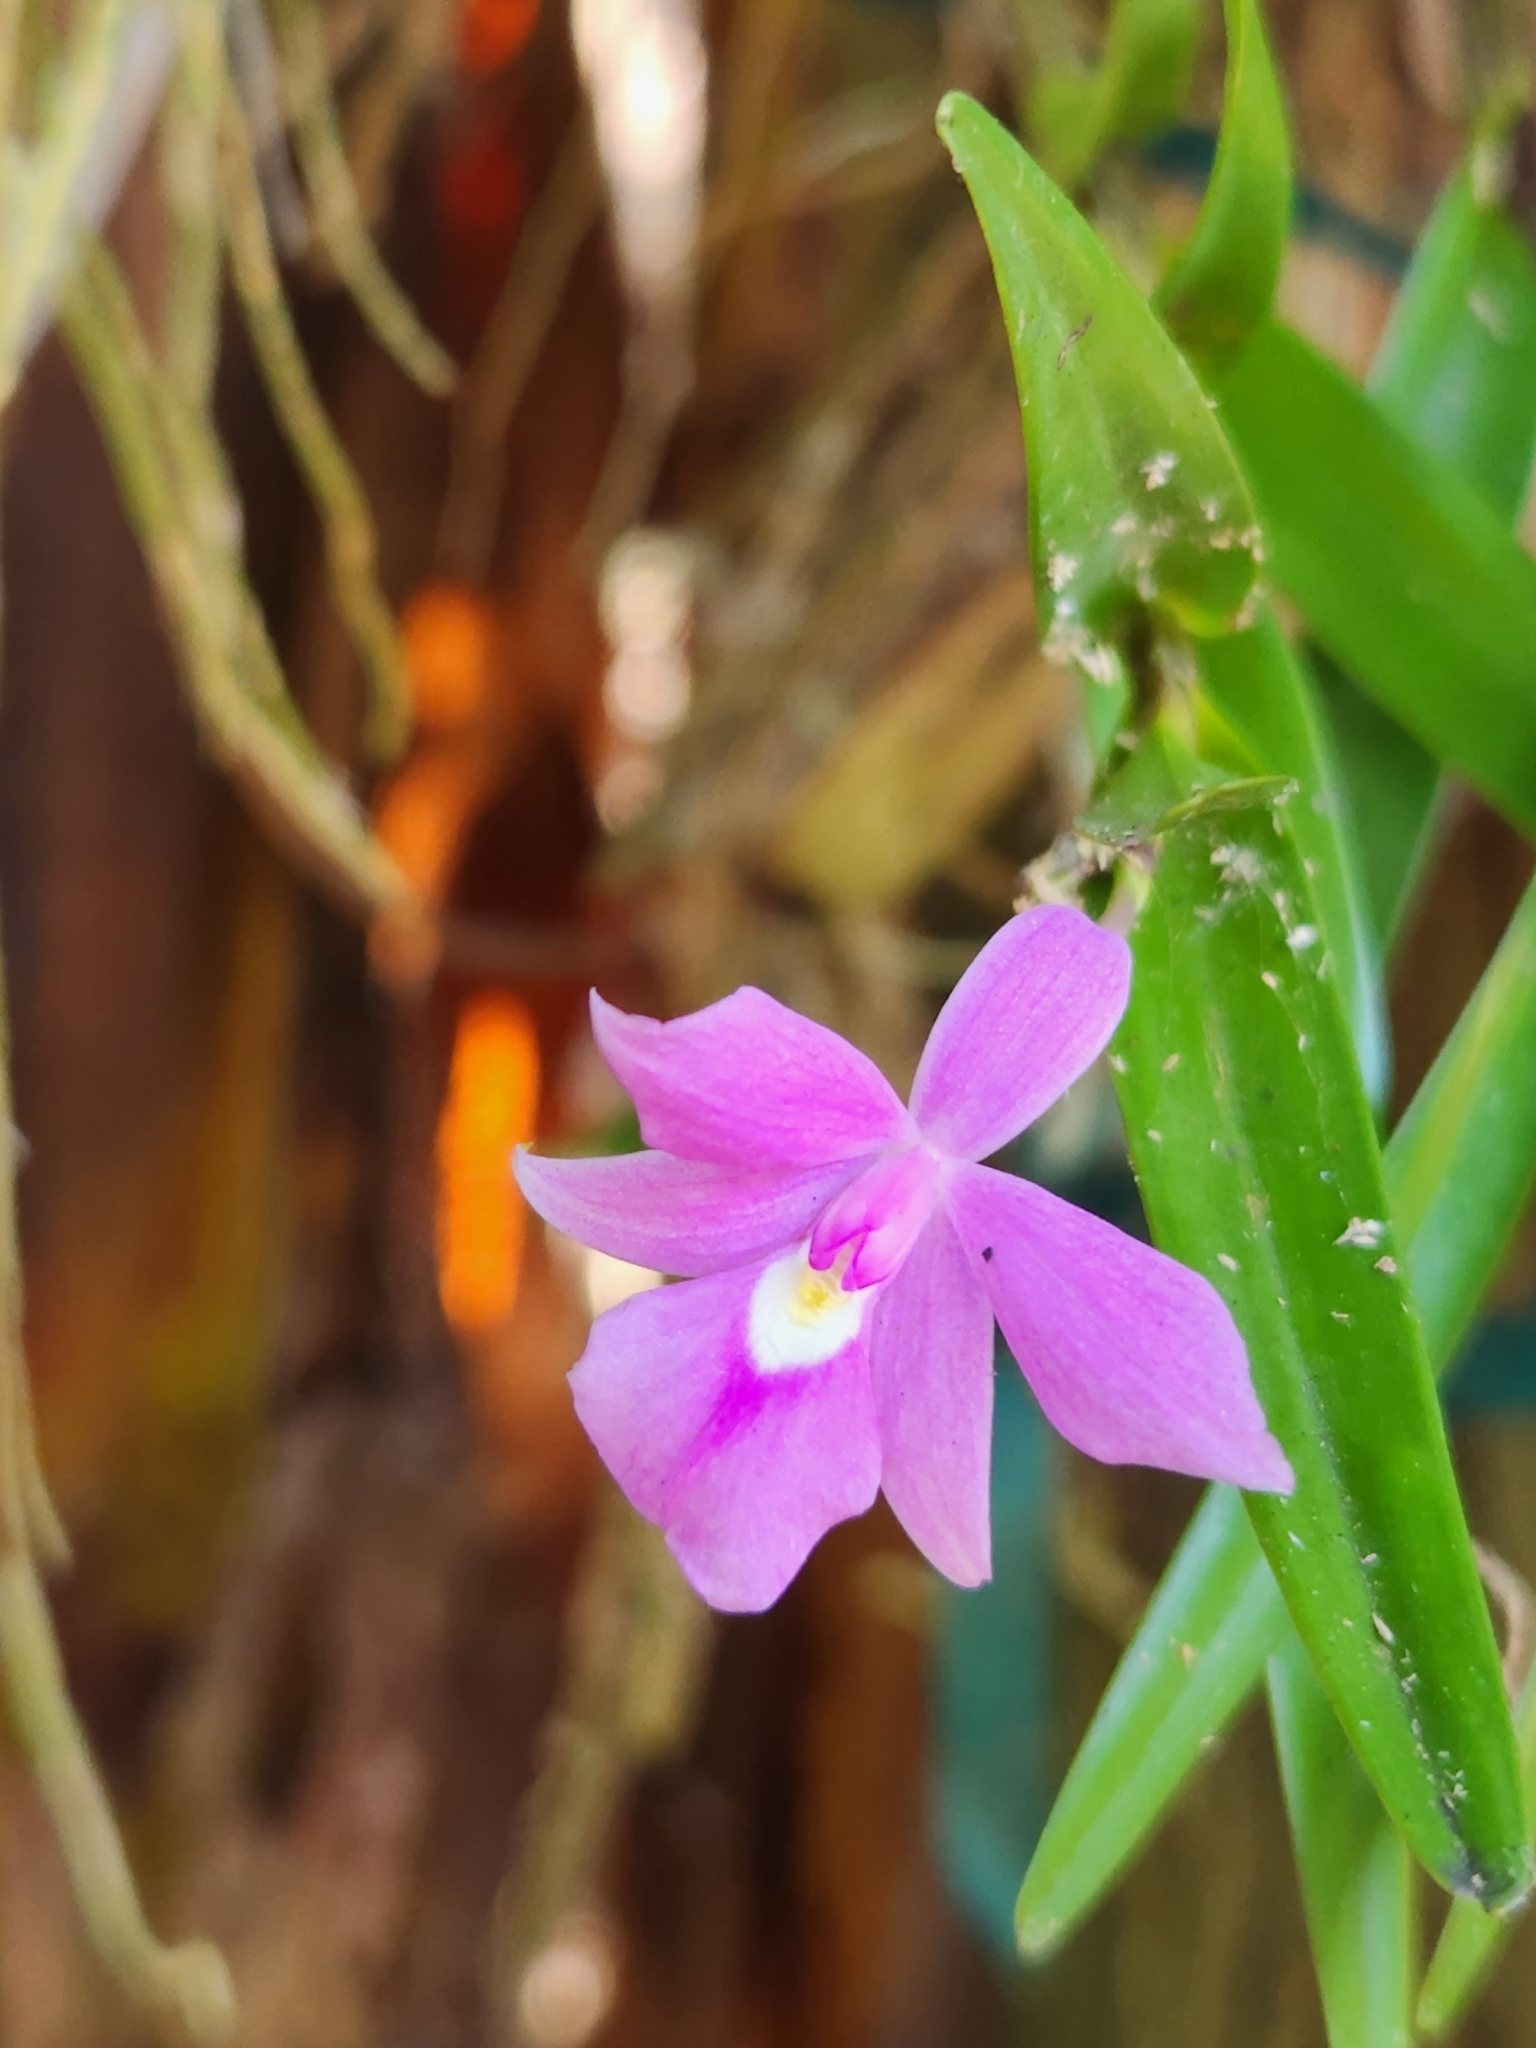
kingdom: Plantae
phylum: Tracheophyta
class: Liliopsida
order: Asparagales
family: Orchidaceae
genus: Dimerandra
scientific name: Dimerandra emarginata
